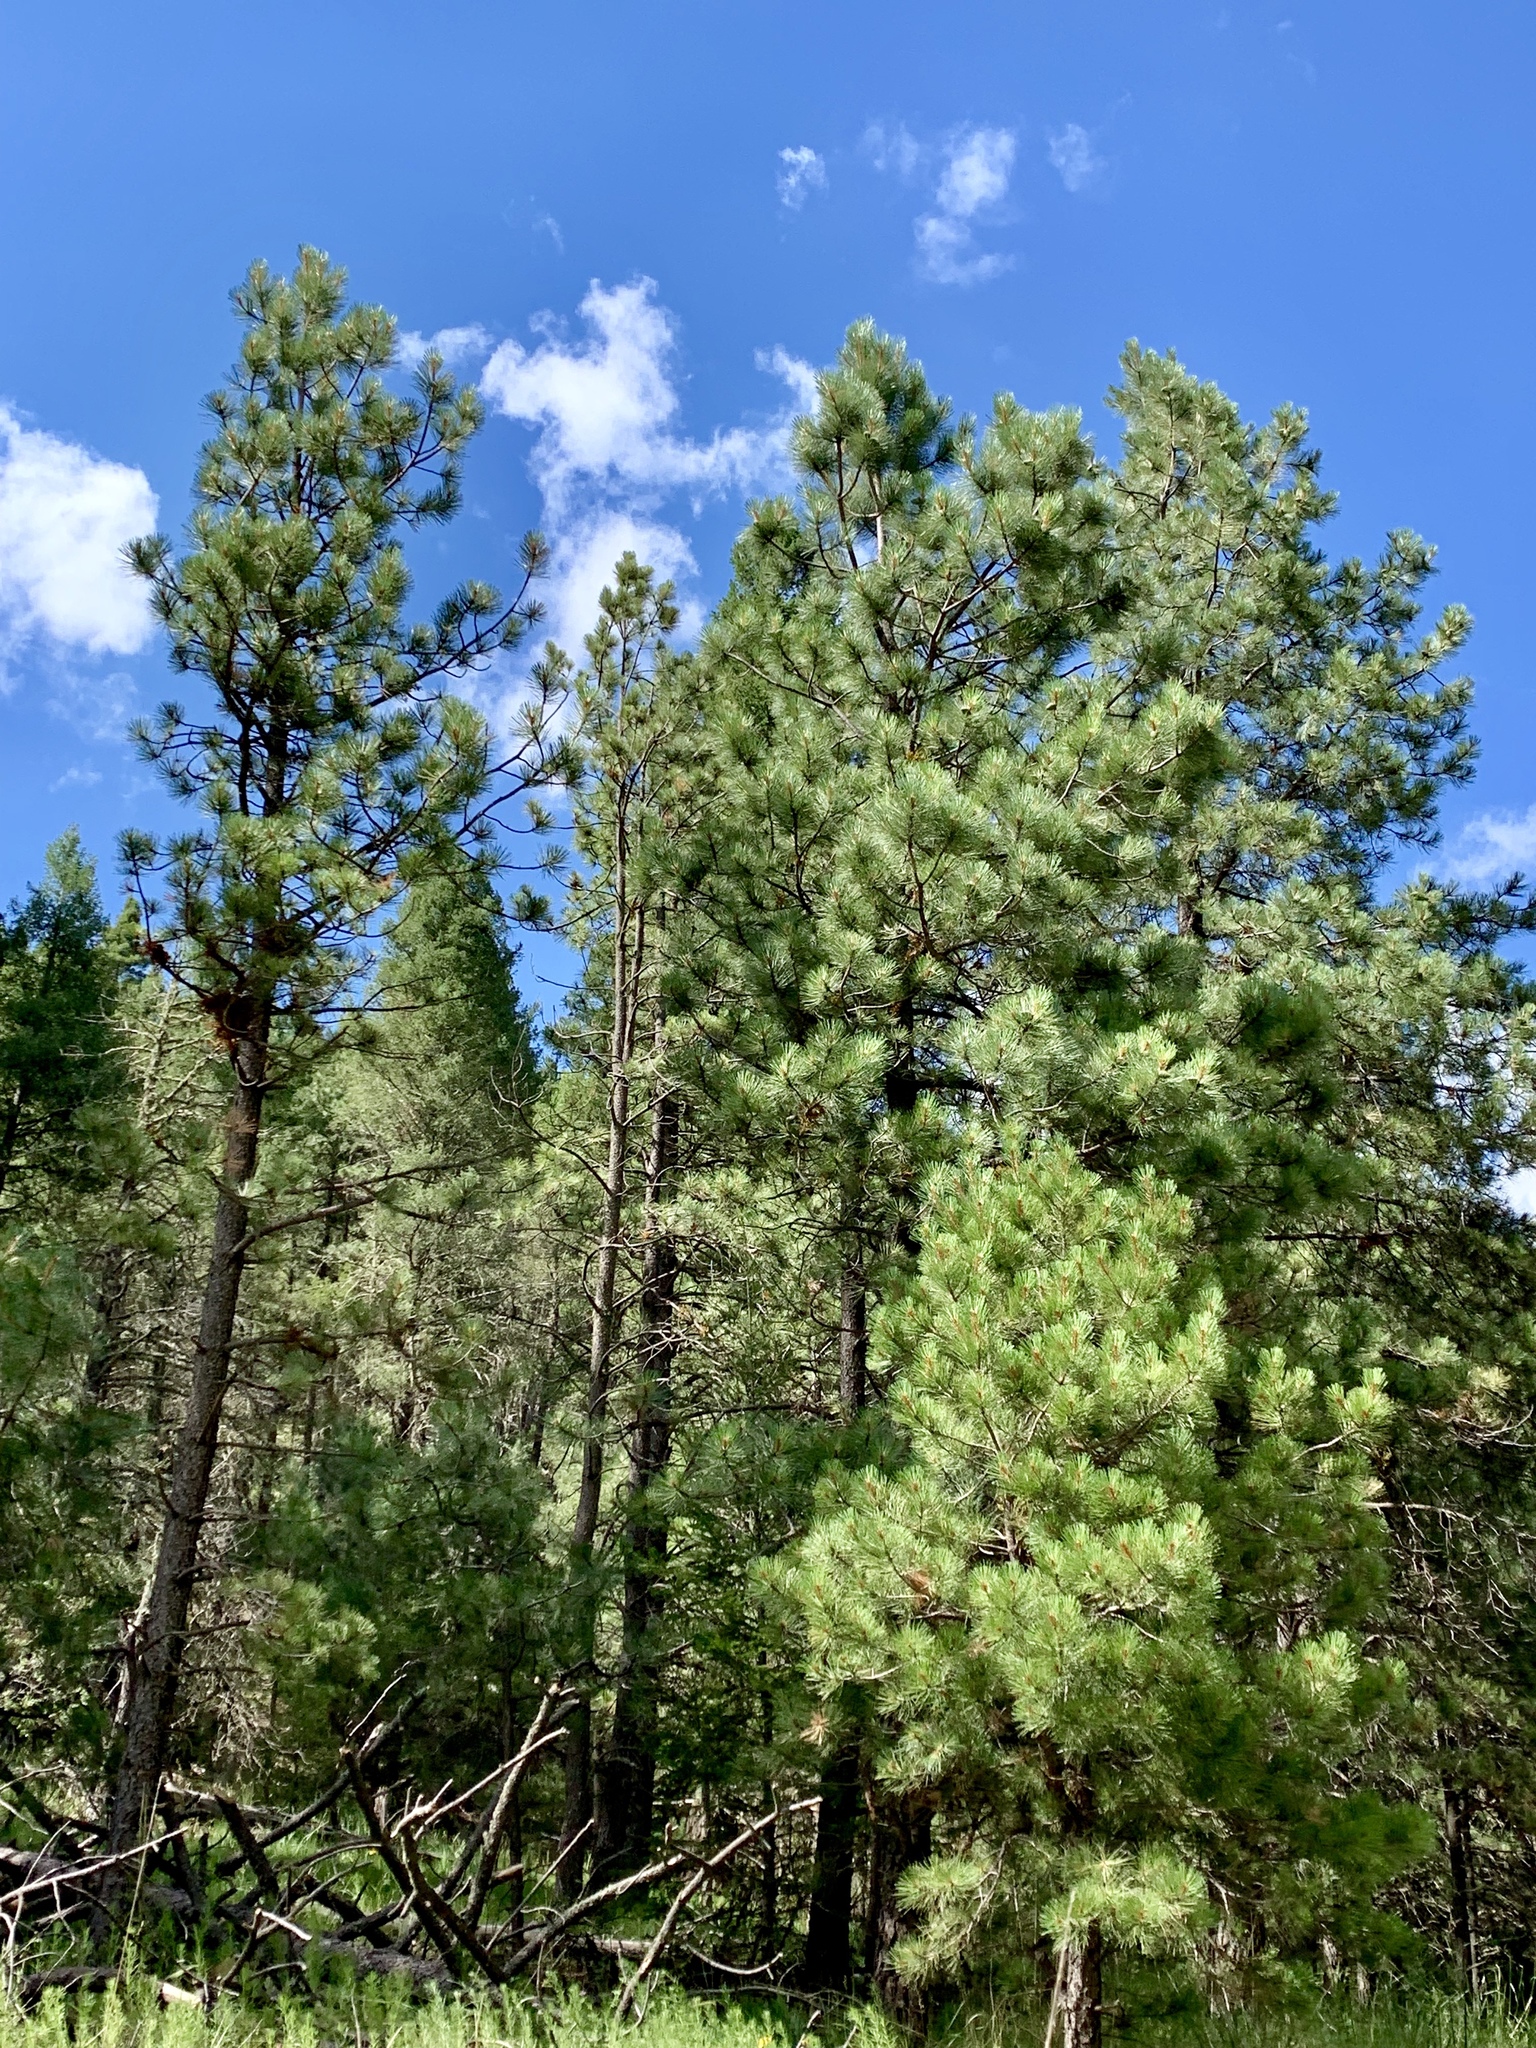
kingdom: Plantae
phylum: Tracheophyta
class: Pinopsida
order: Pinales
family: Pinaceae
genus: Pinus
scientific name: Pinus ponderosa
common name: Western yellow-pine
